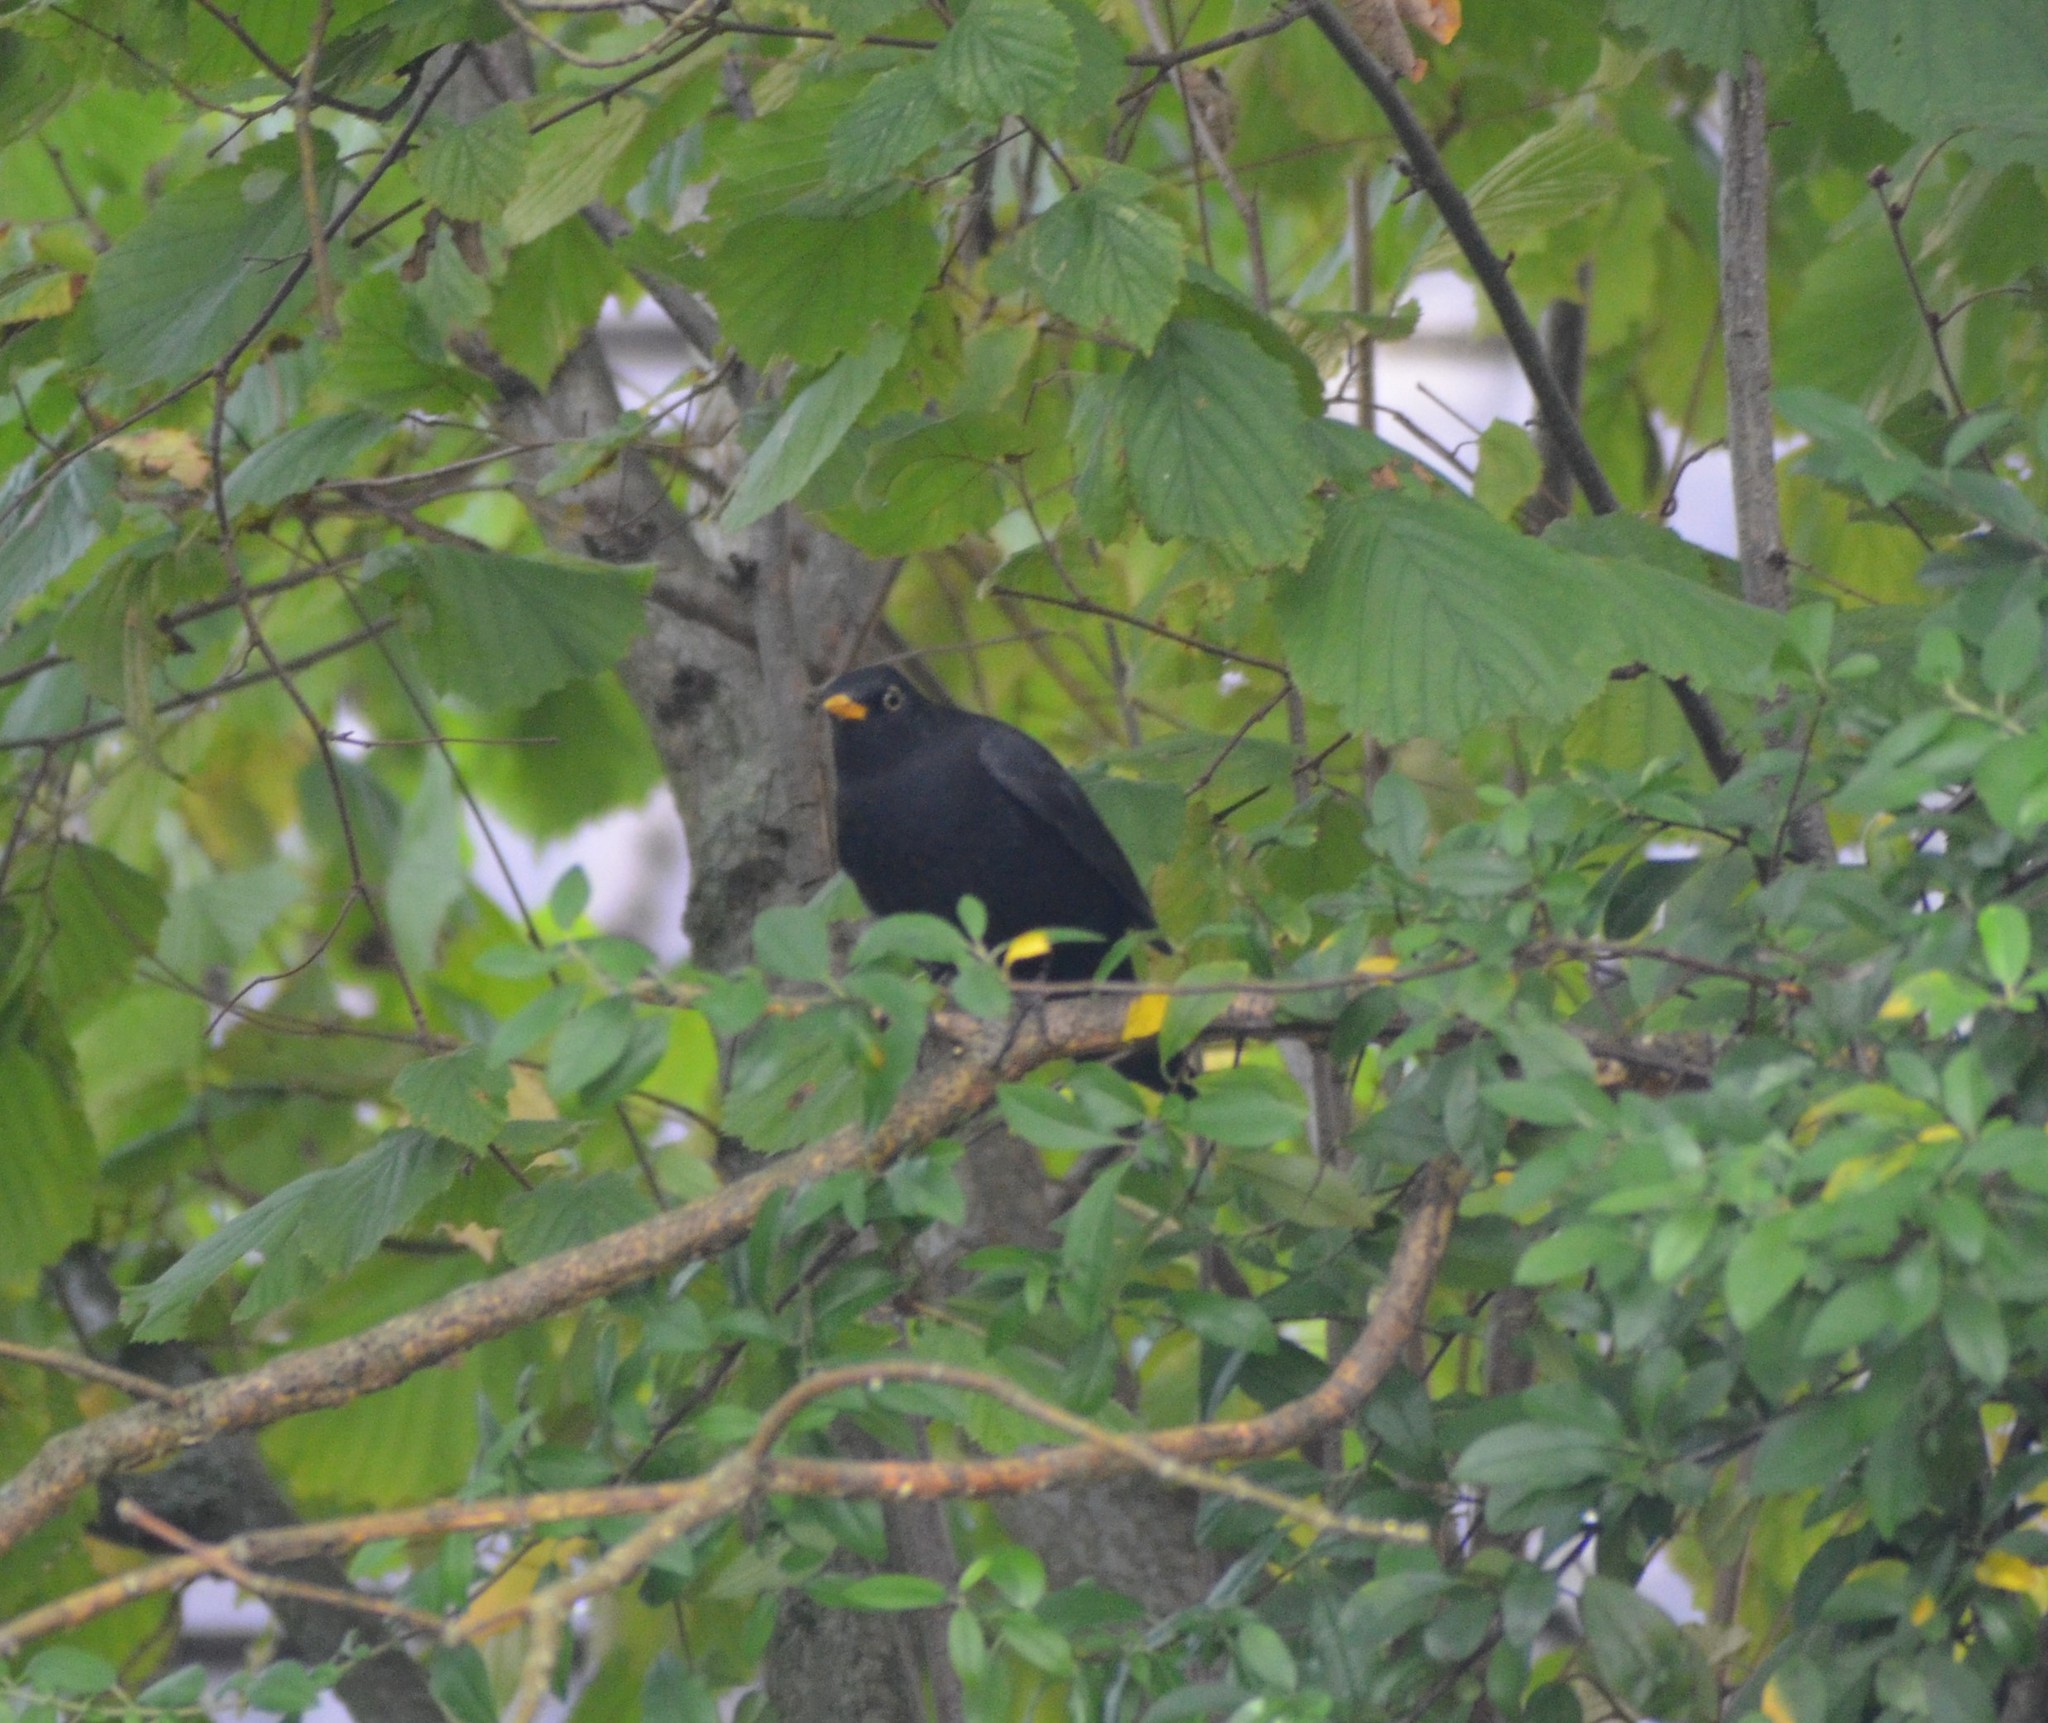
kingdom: Animalia
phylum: Chordata
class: Aves
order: Passeriformes
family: Turdidae
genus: Turdus
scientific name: Turdus merula
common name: Common blackbird
